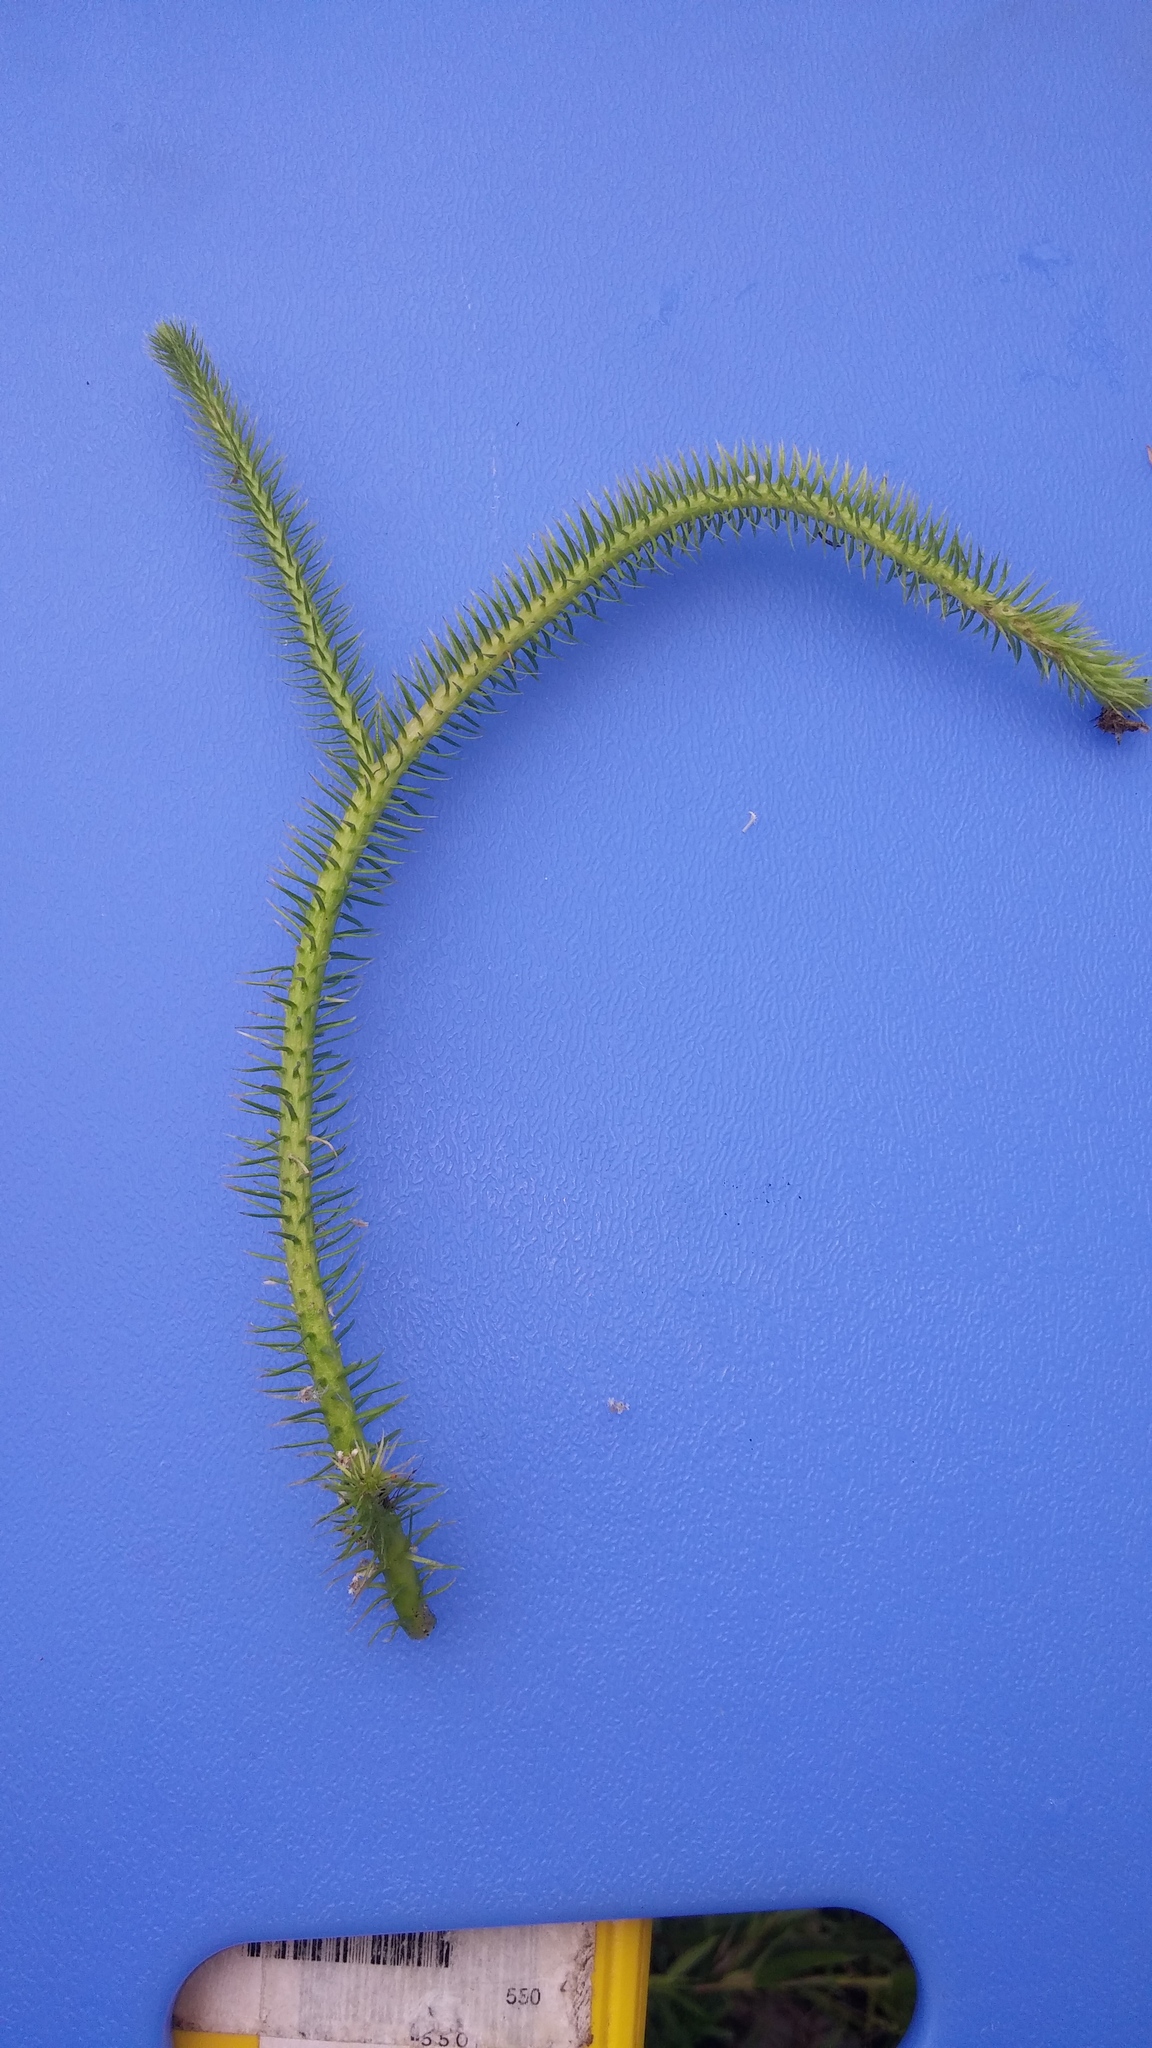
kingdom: Plantae
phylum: Tracheophyta
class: Lycopodiopsida
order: Lycopodiales
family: Lycopodiaceae
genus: Lycopodiella
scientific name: Lycopodiella alopecuroides
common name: Foxtail clubmoss
